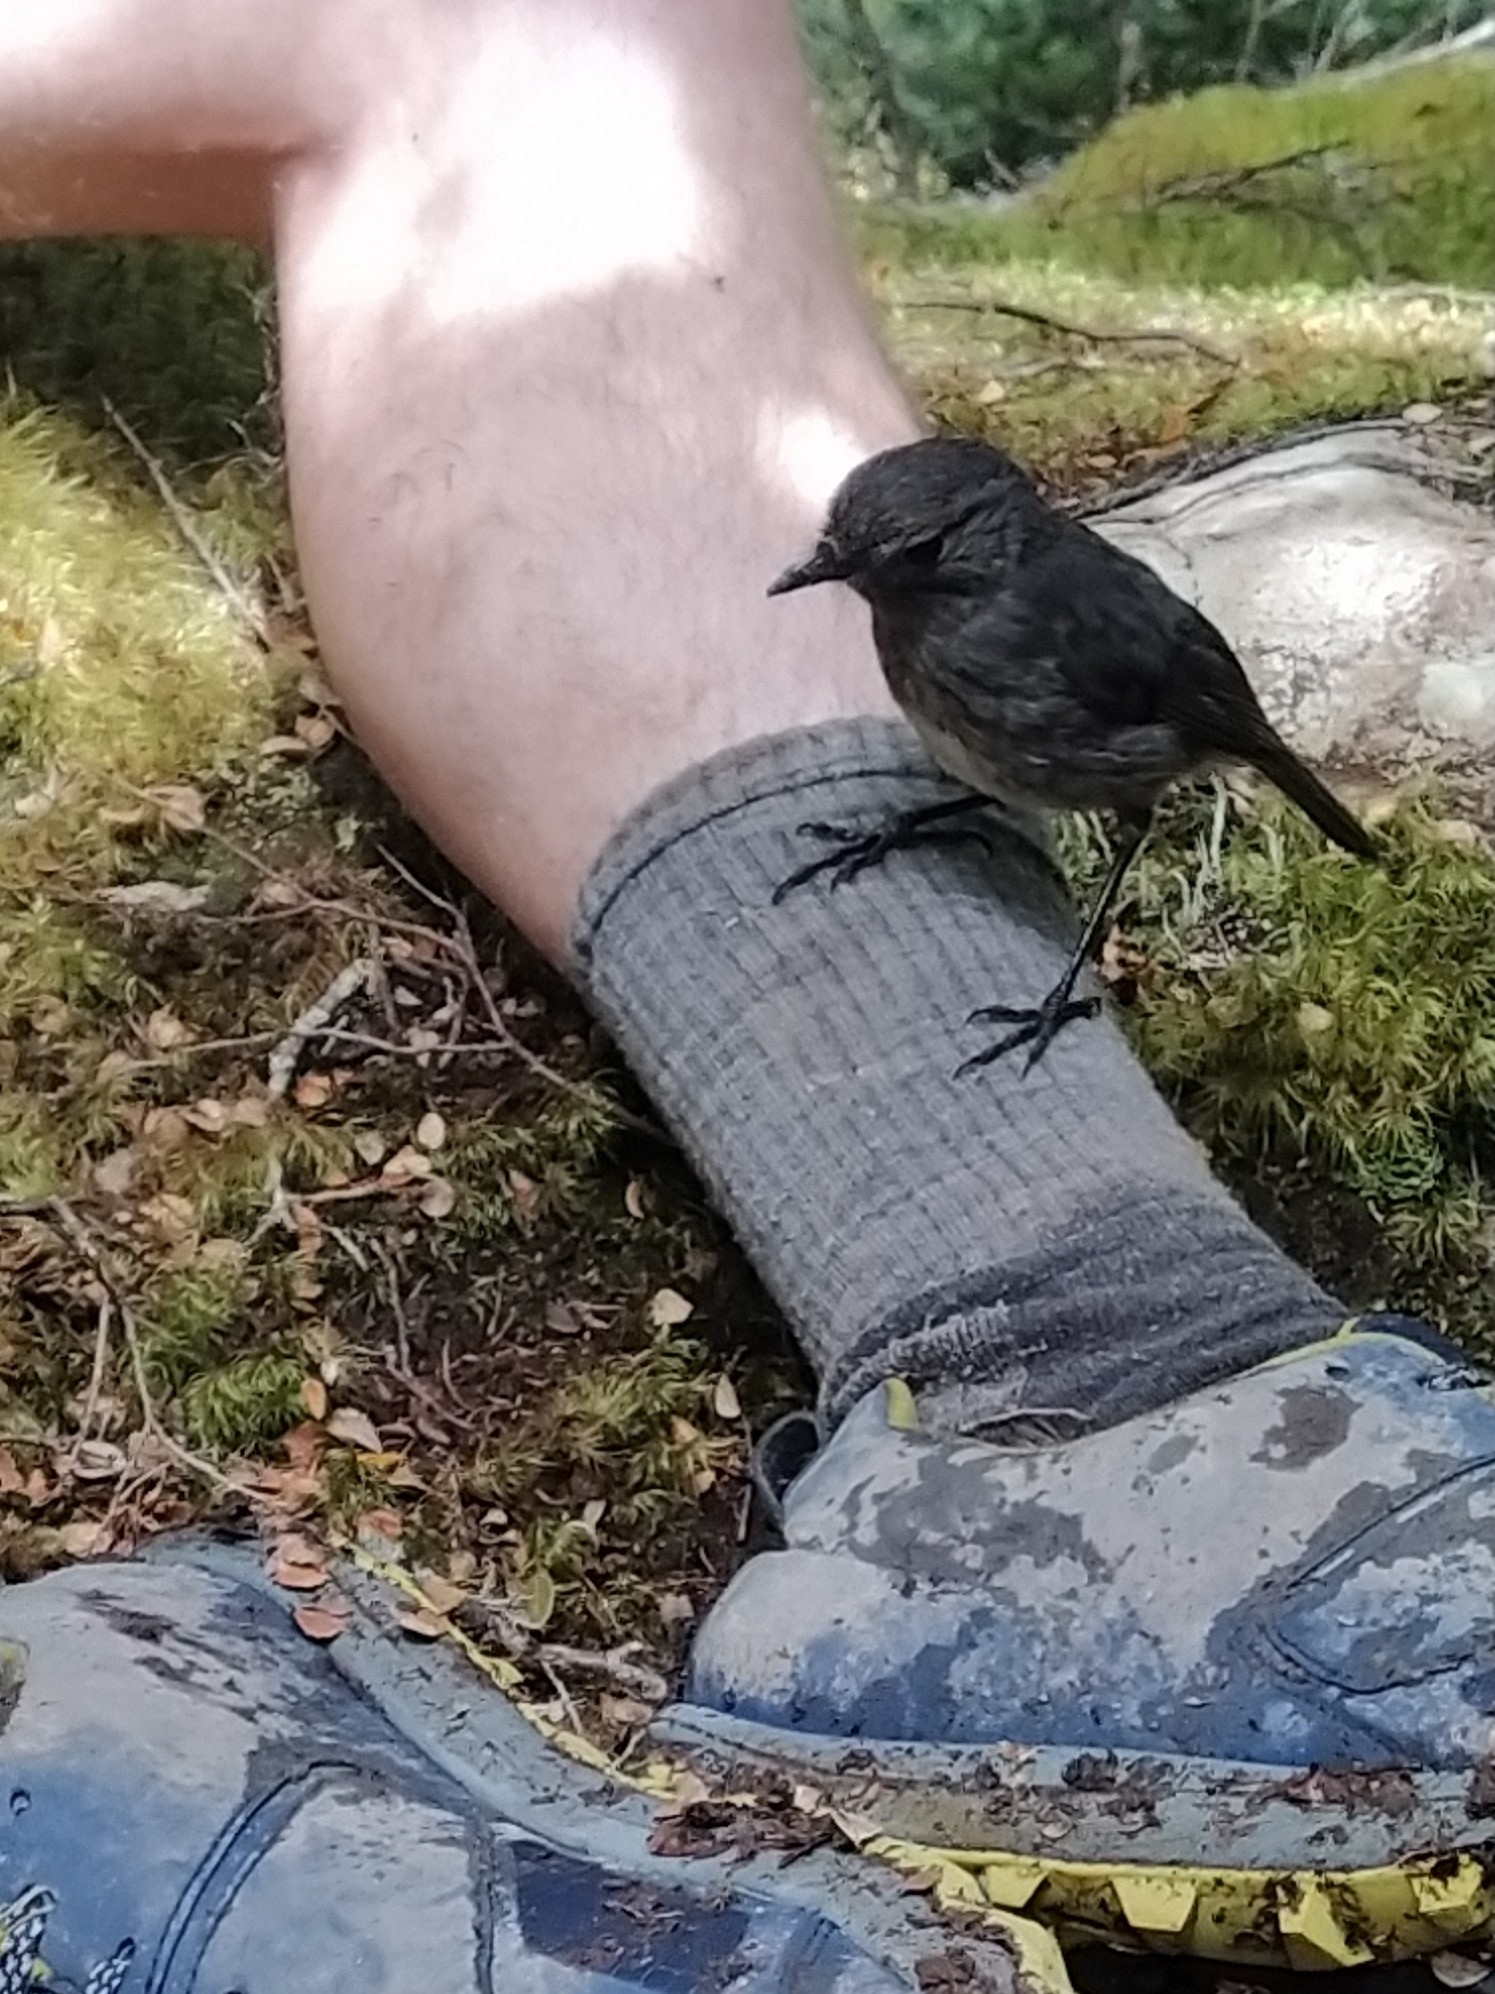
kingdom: Animalia
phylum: Chordata
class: Aves
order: Passeriformes
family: Petroicidae
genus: Petroica
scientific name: Petroica australis
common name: New zealand robin
